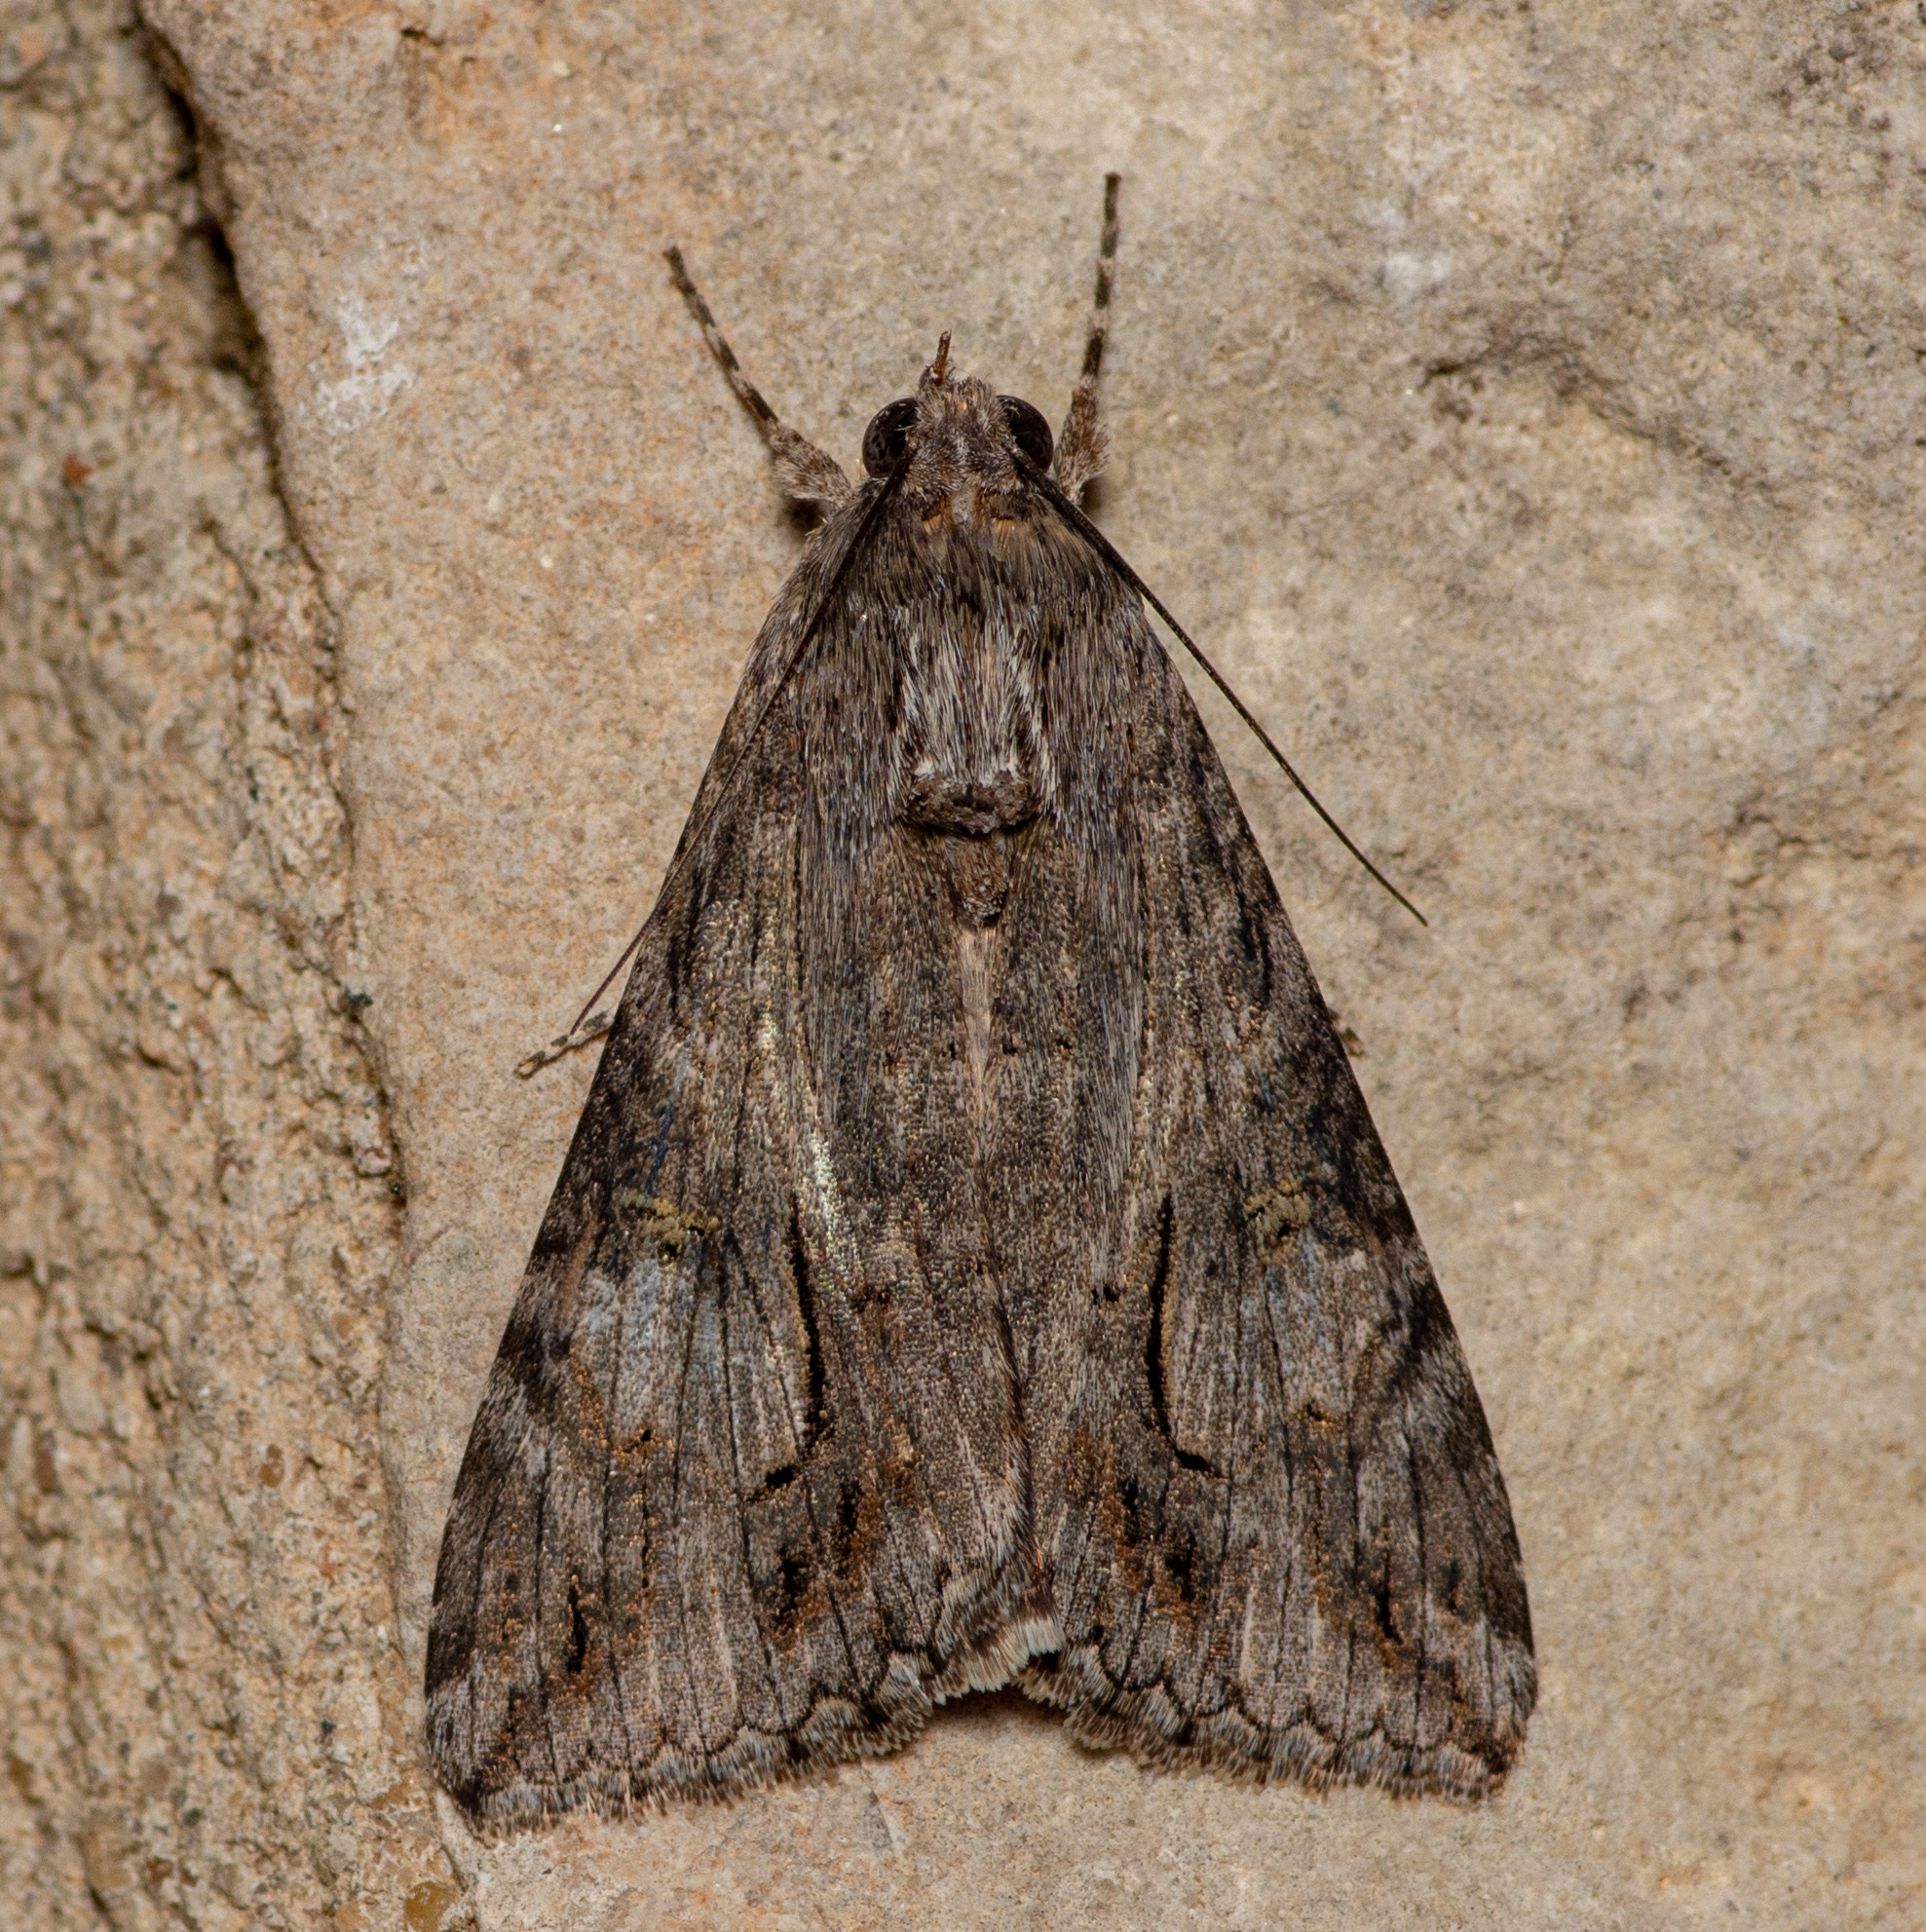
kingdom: Animalia
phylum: Arthropoda
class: Insecta
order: Lepidoptera
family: Erebidae
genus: Melipotis
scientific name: Melipotis jucunda
